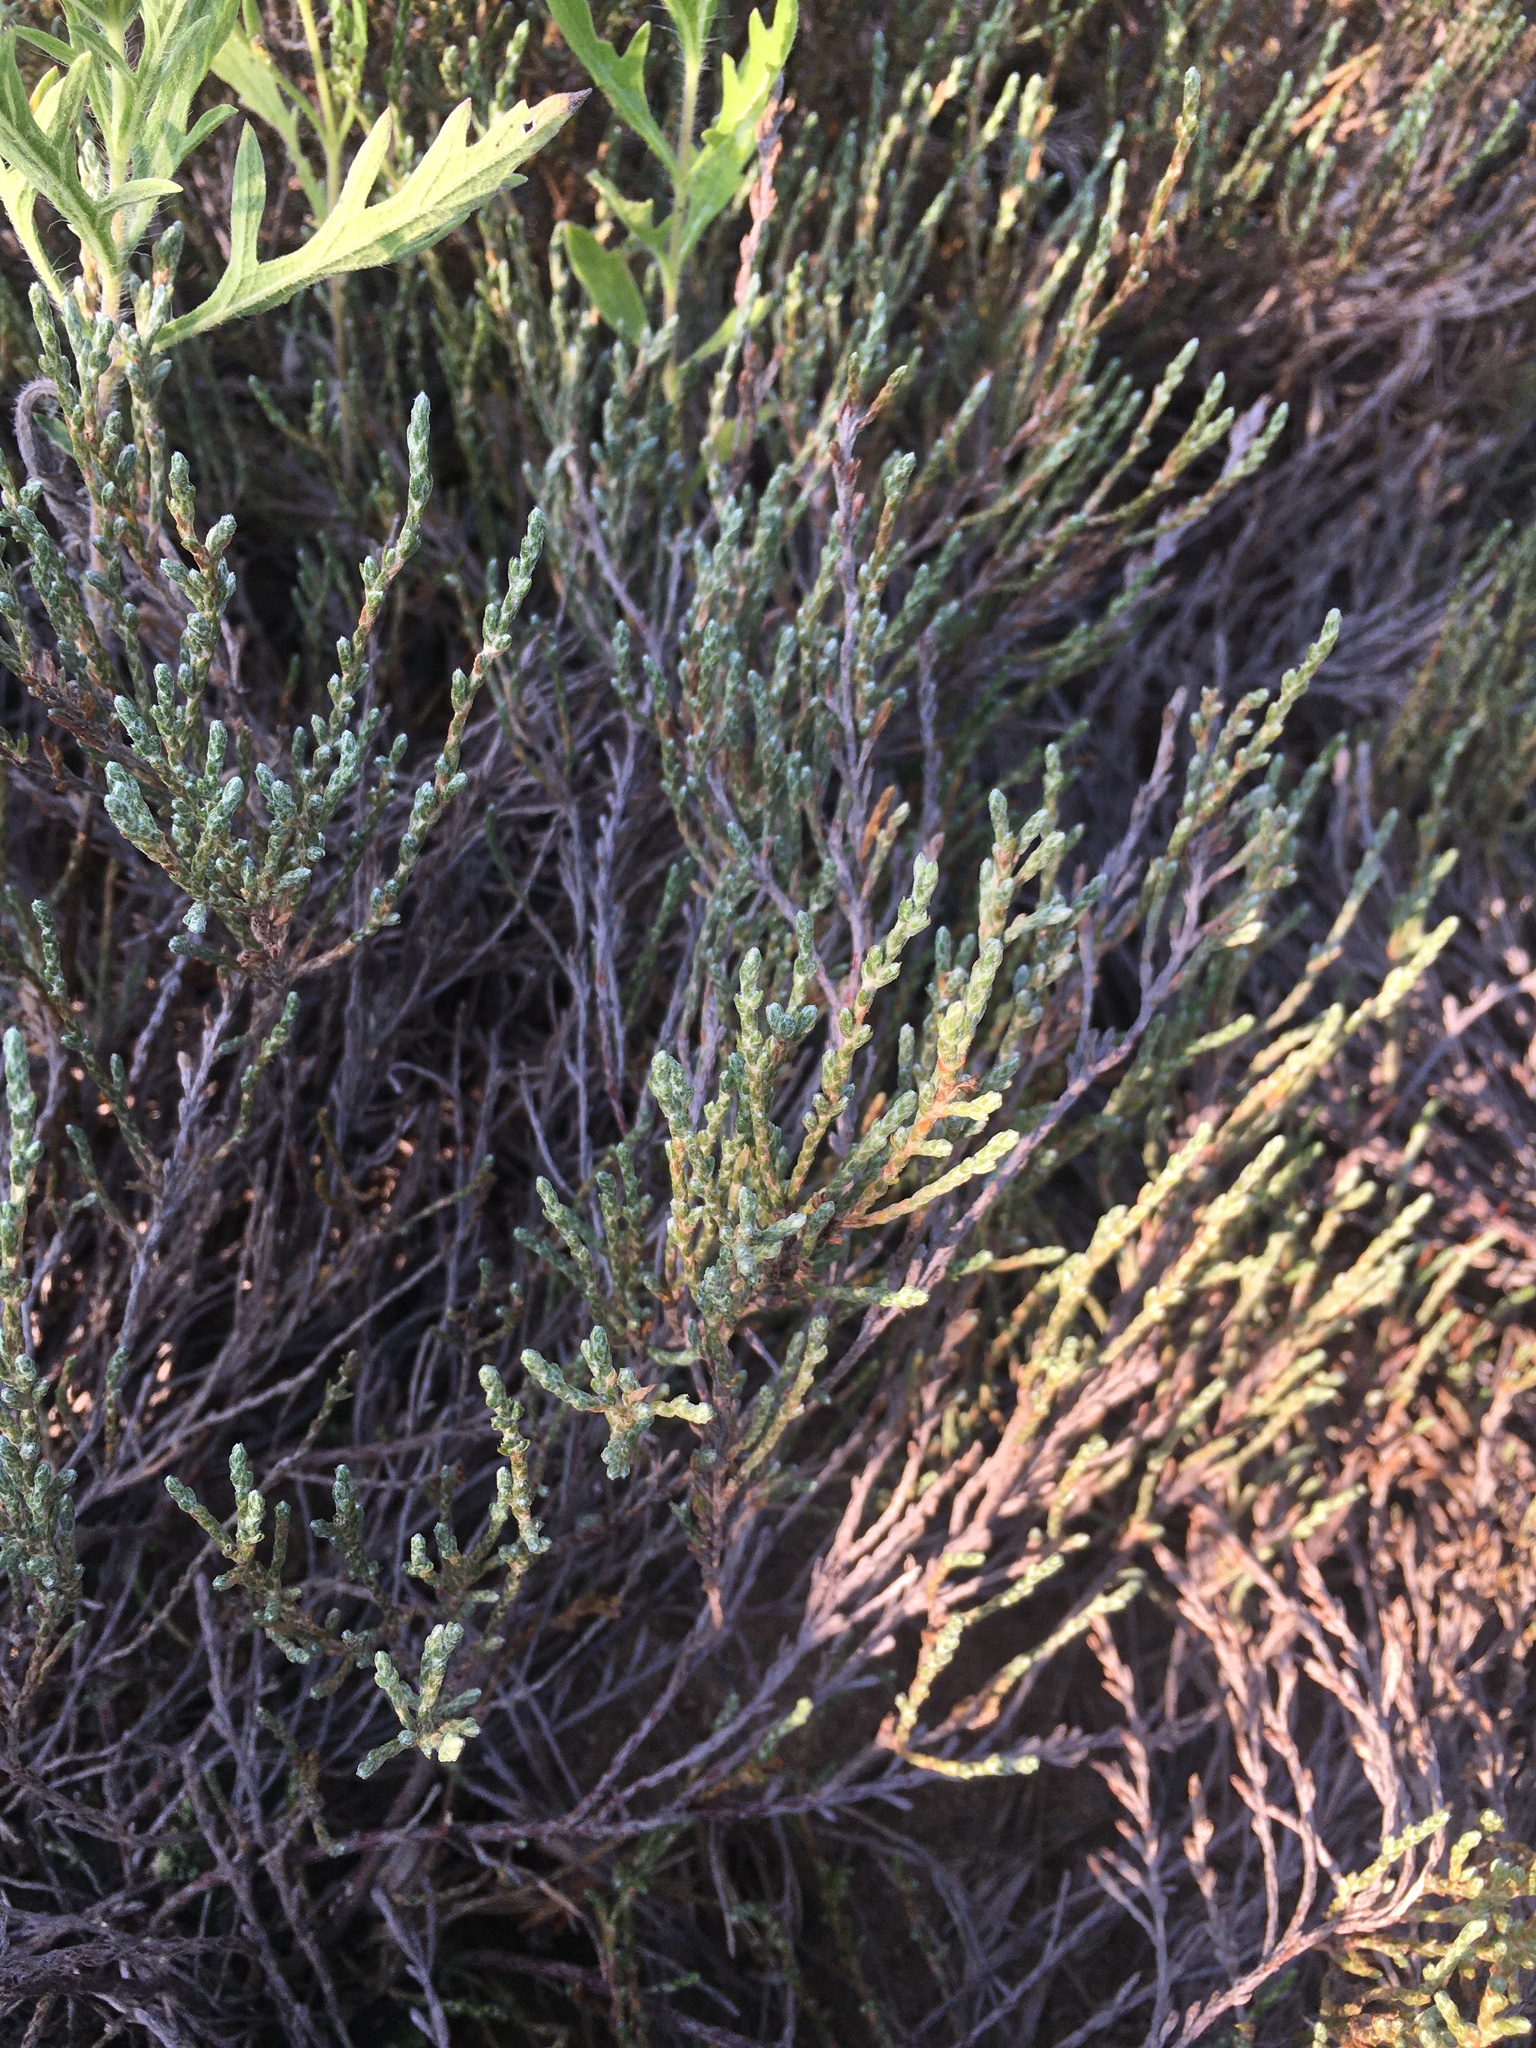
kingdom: Plantae
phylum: Tracheophyta
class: Magnoliopsida
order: Malvales
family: Cistaceae
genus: Hudsonia
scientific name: Hudsonia tomentosa
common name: Beach-heath
